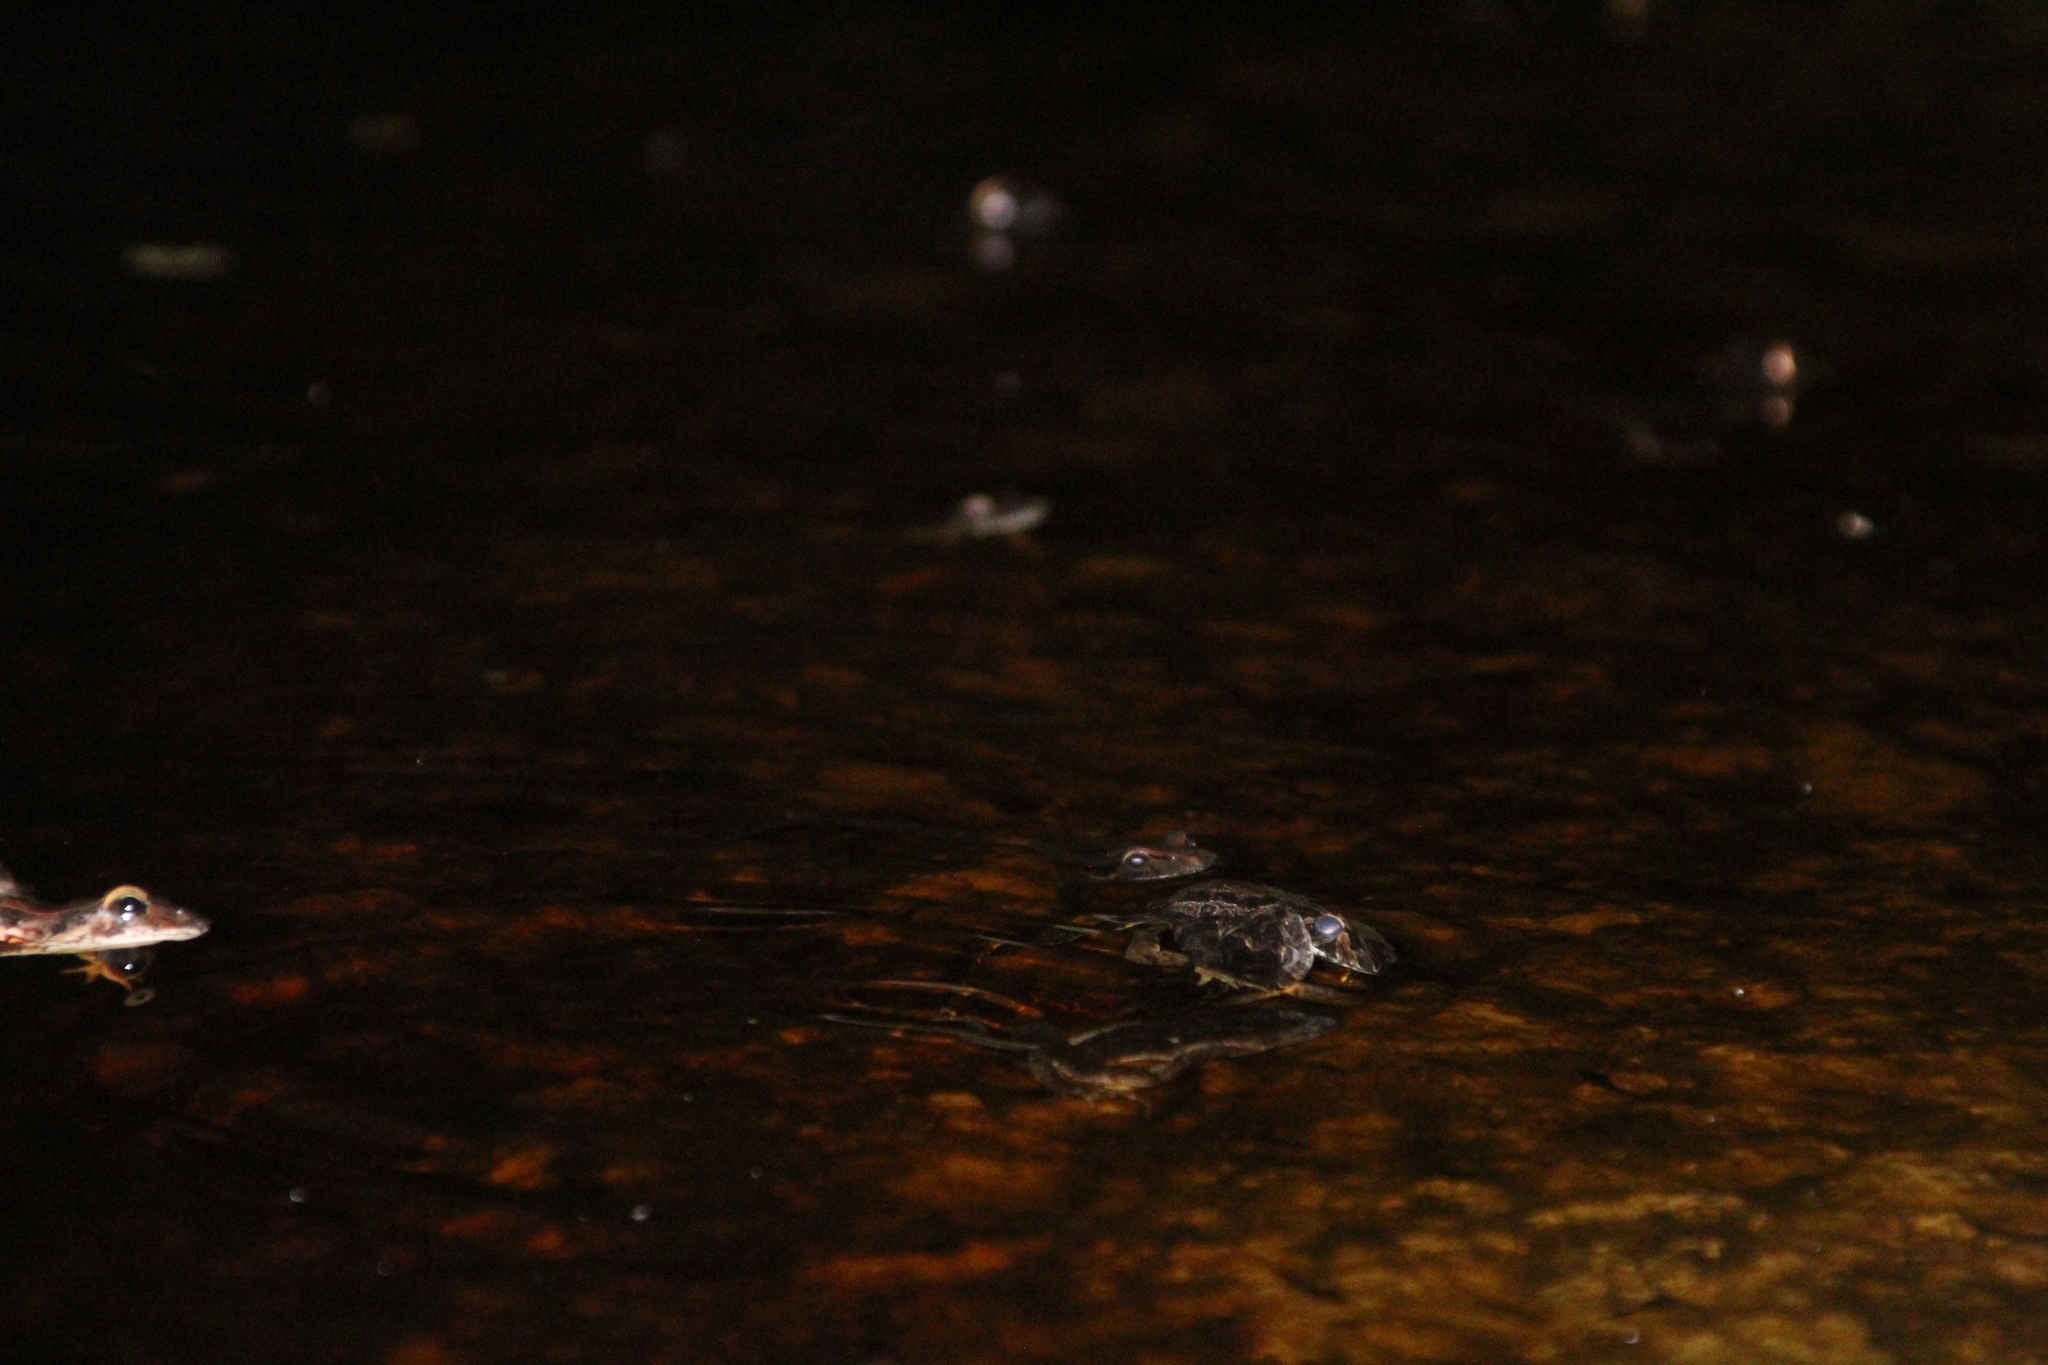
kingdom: Animalia
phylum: Chordata
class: Amphibia
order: Anura
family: Myobatrachidae
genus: Crinia
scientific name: Crinia georgiana
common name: Quacking frog
